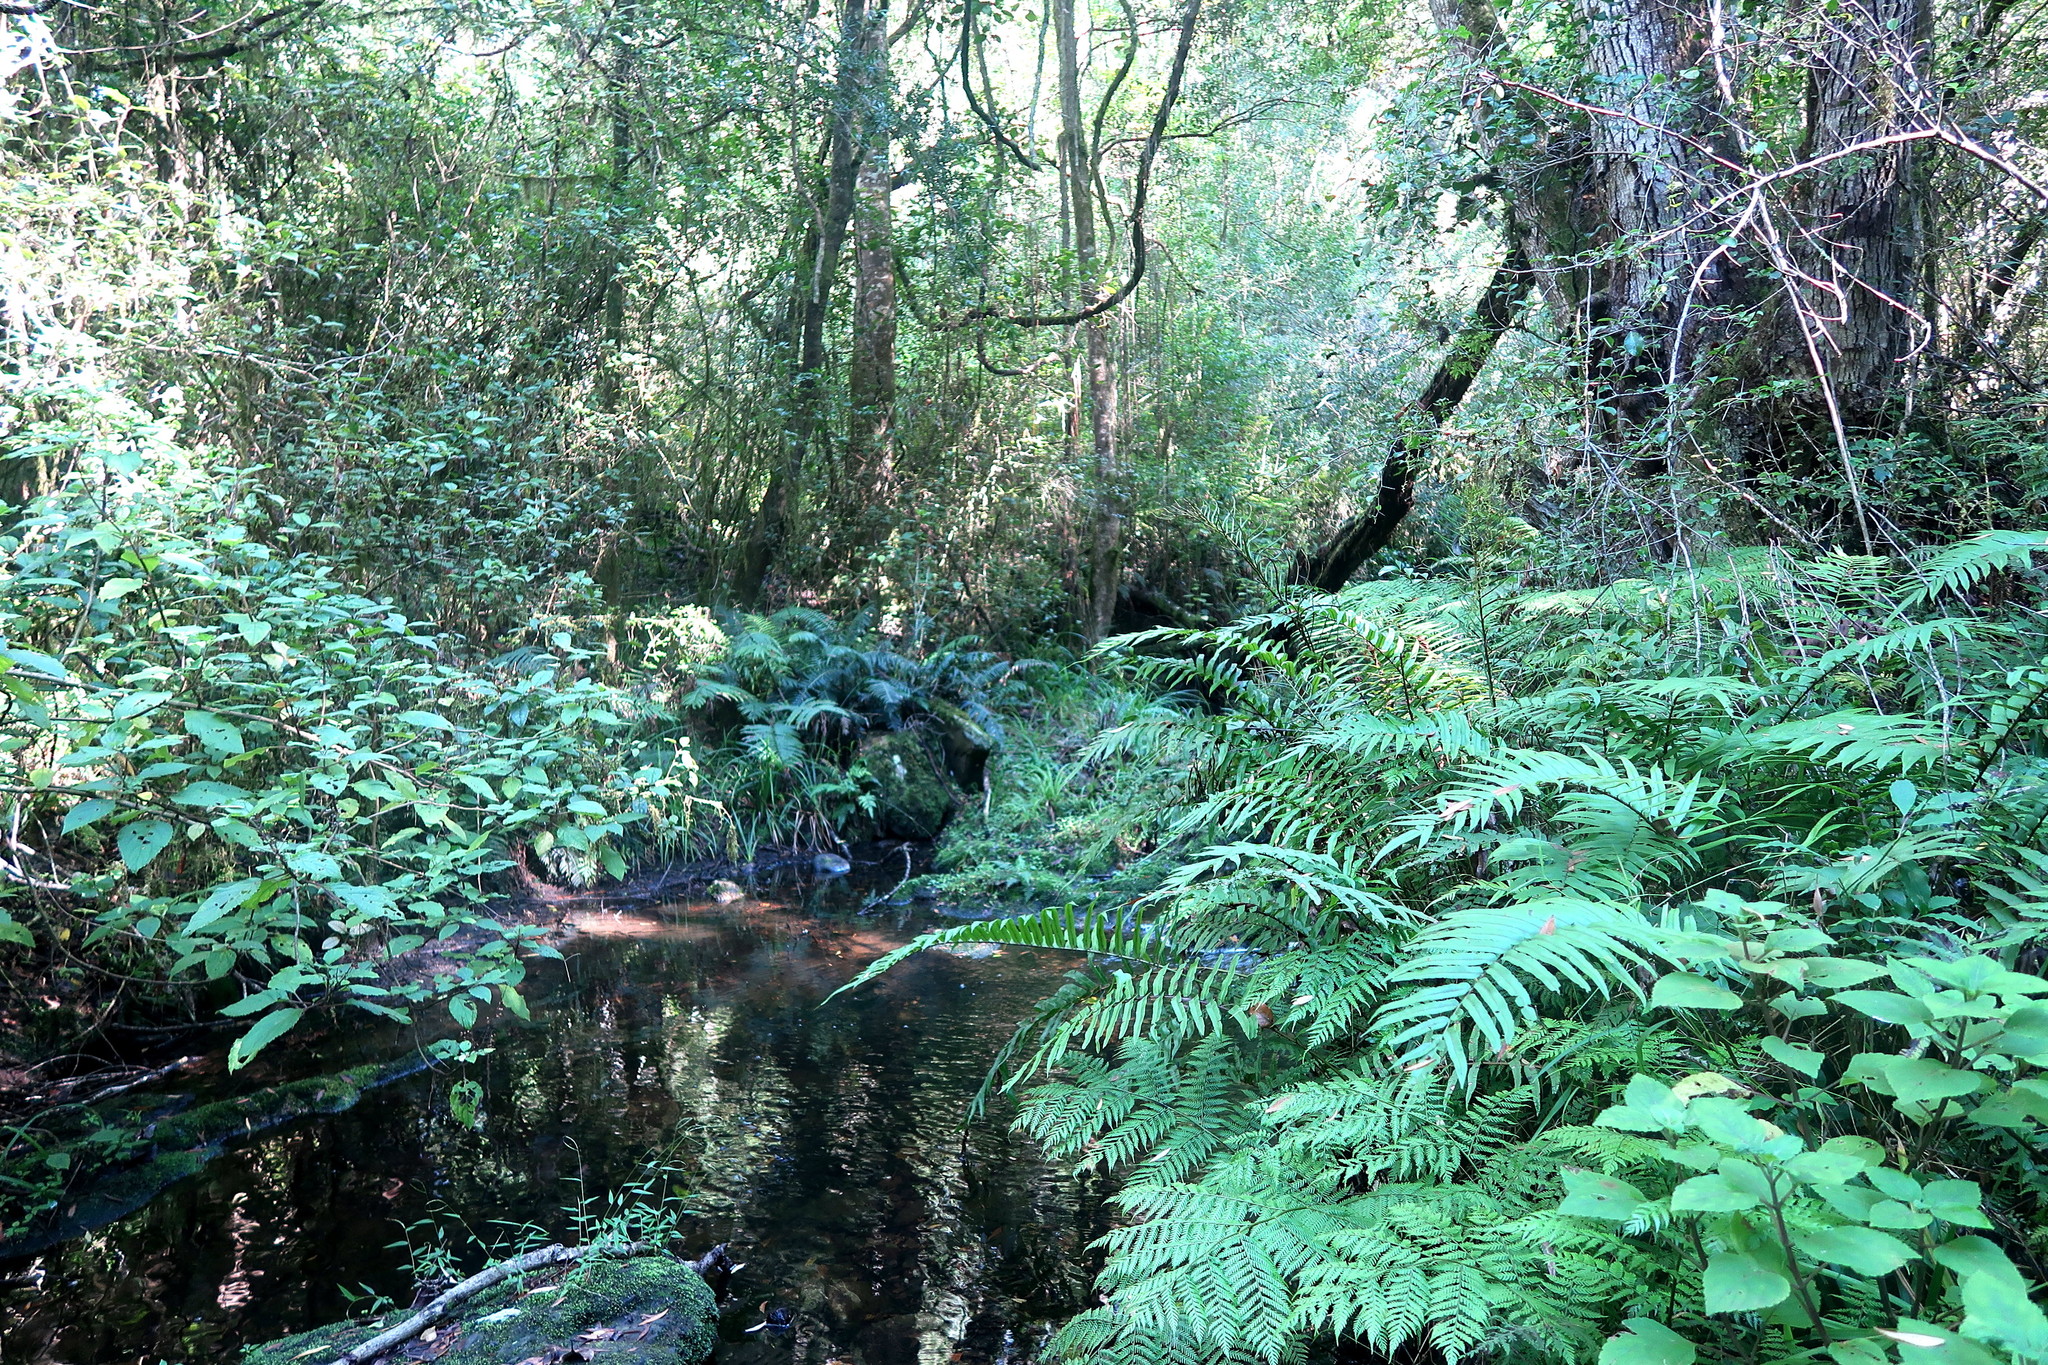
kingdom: Plantae
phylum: Tracheophyta
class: Magnoliopsida
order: Lamiales
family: Lamiaceae
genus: Plectranthus
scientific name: Plectranthus fruticosus
